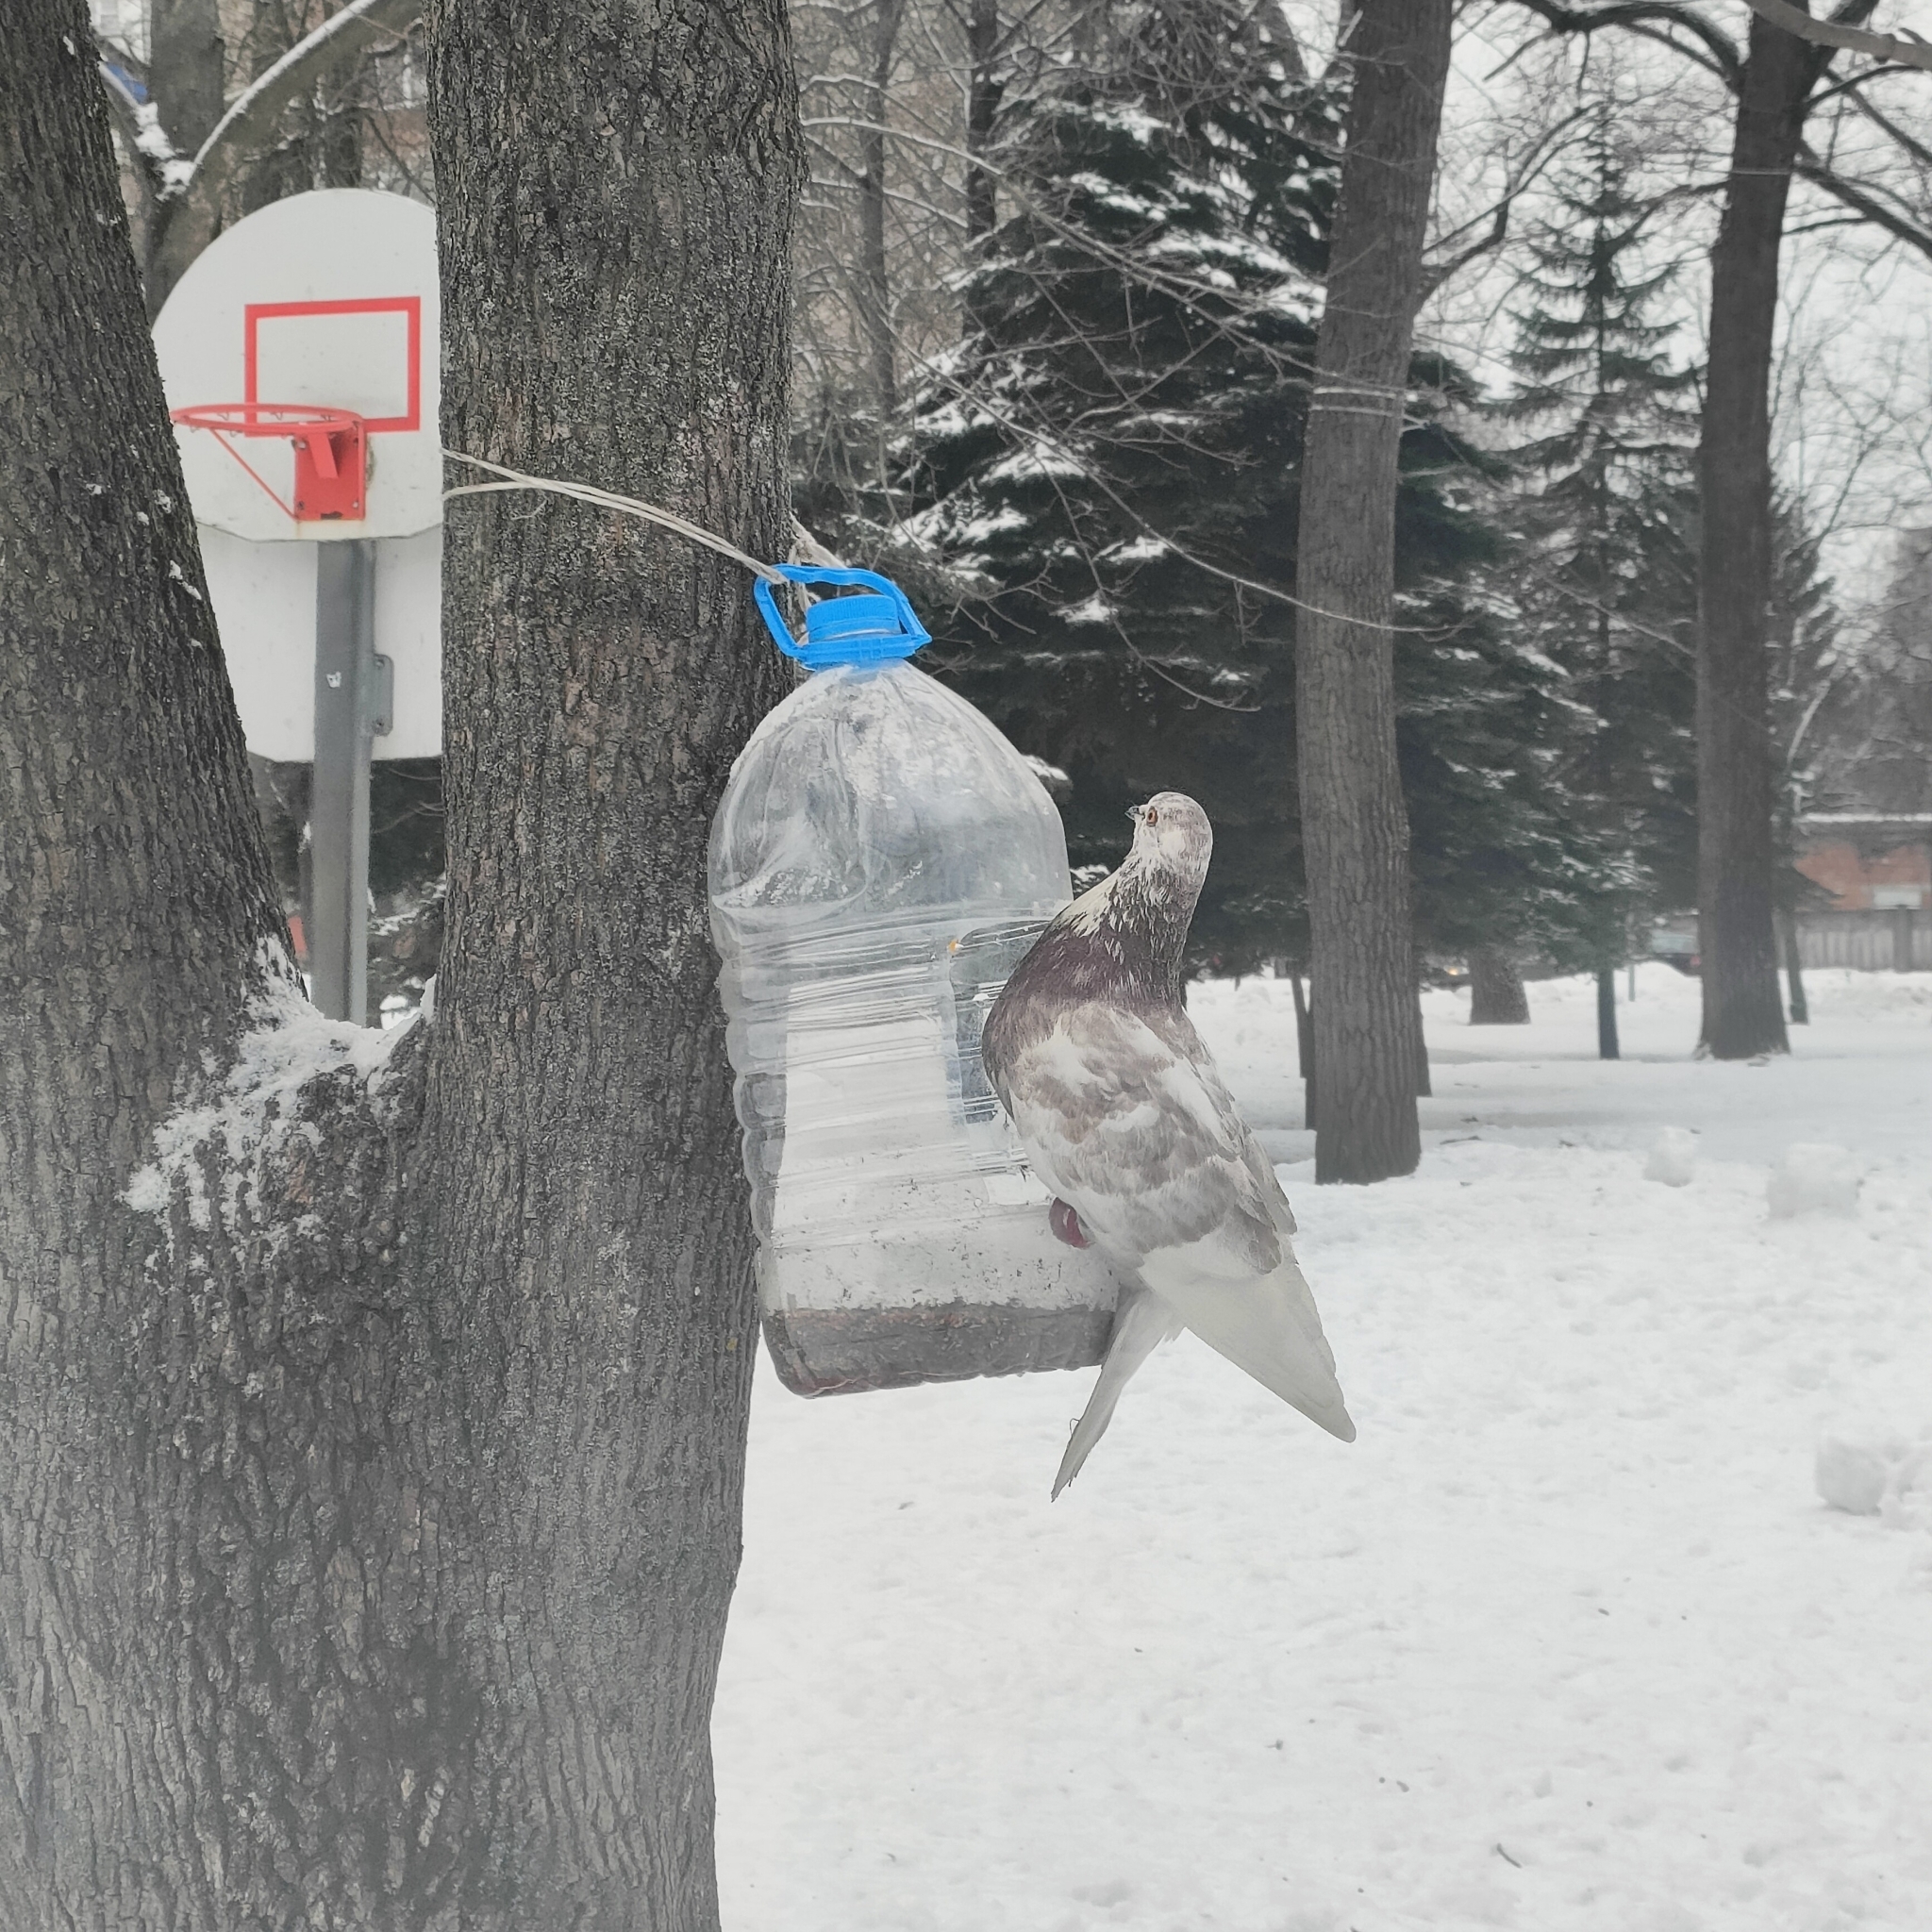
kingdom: Animalia
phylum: Chordata
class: Aves
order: Columbiformes
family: Columbidae
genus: Columba
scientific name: Columba livia
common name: Rock pigeon
